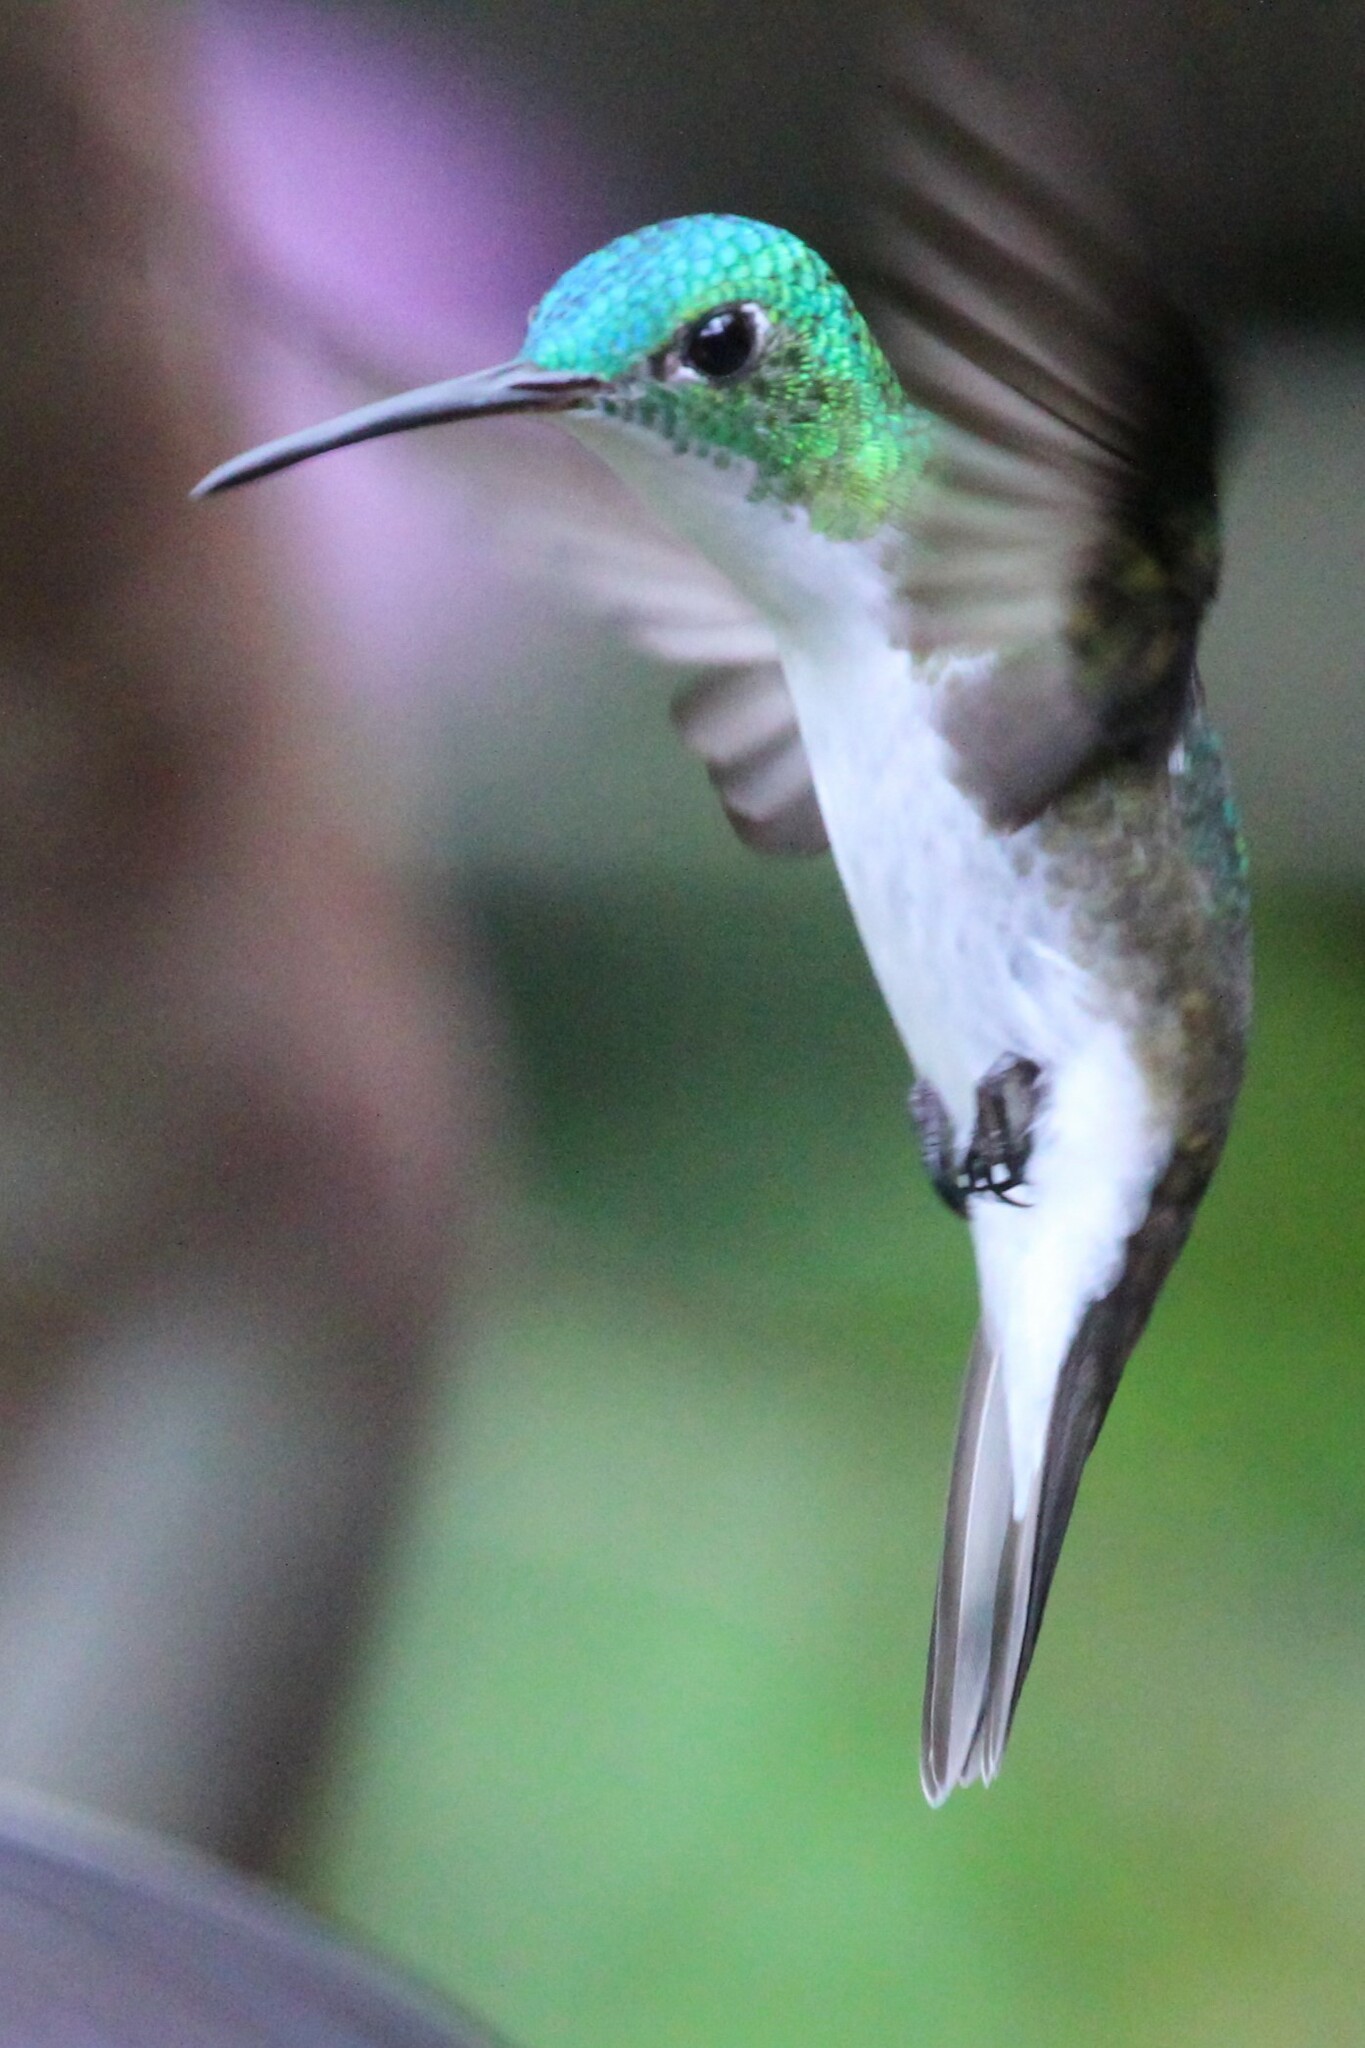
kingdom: Animalia
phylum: Chordata
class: Aves
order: Apodiformes
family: Trochilidae
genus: Uranomitra
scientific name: Uranomitra franciae
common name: Andean emerald
